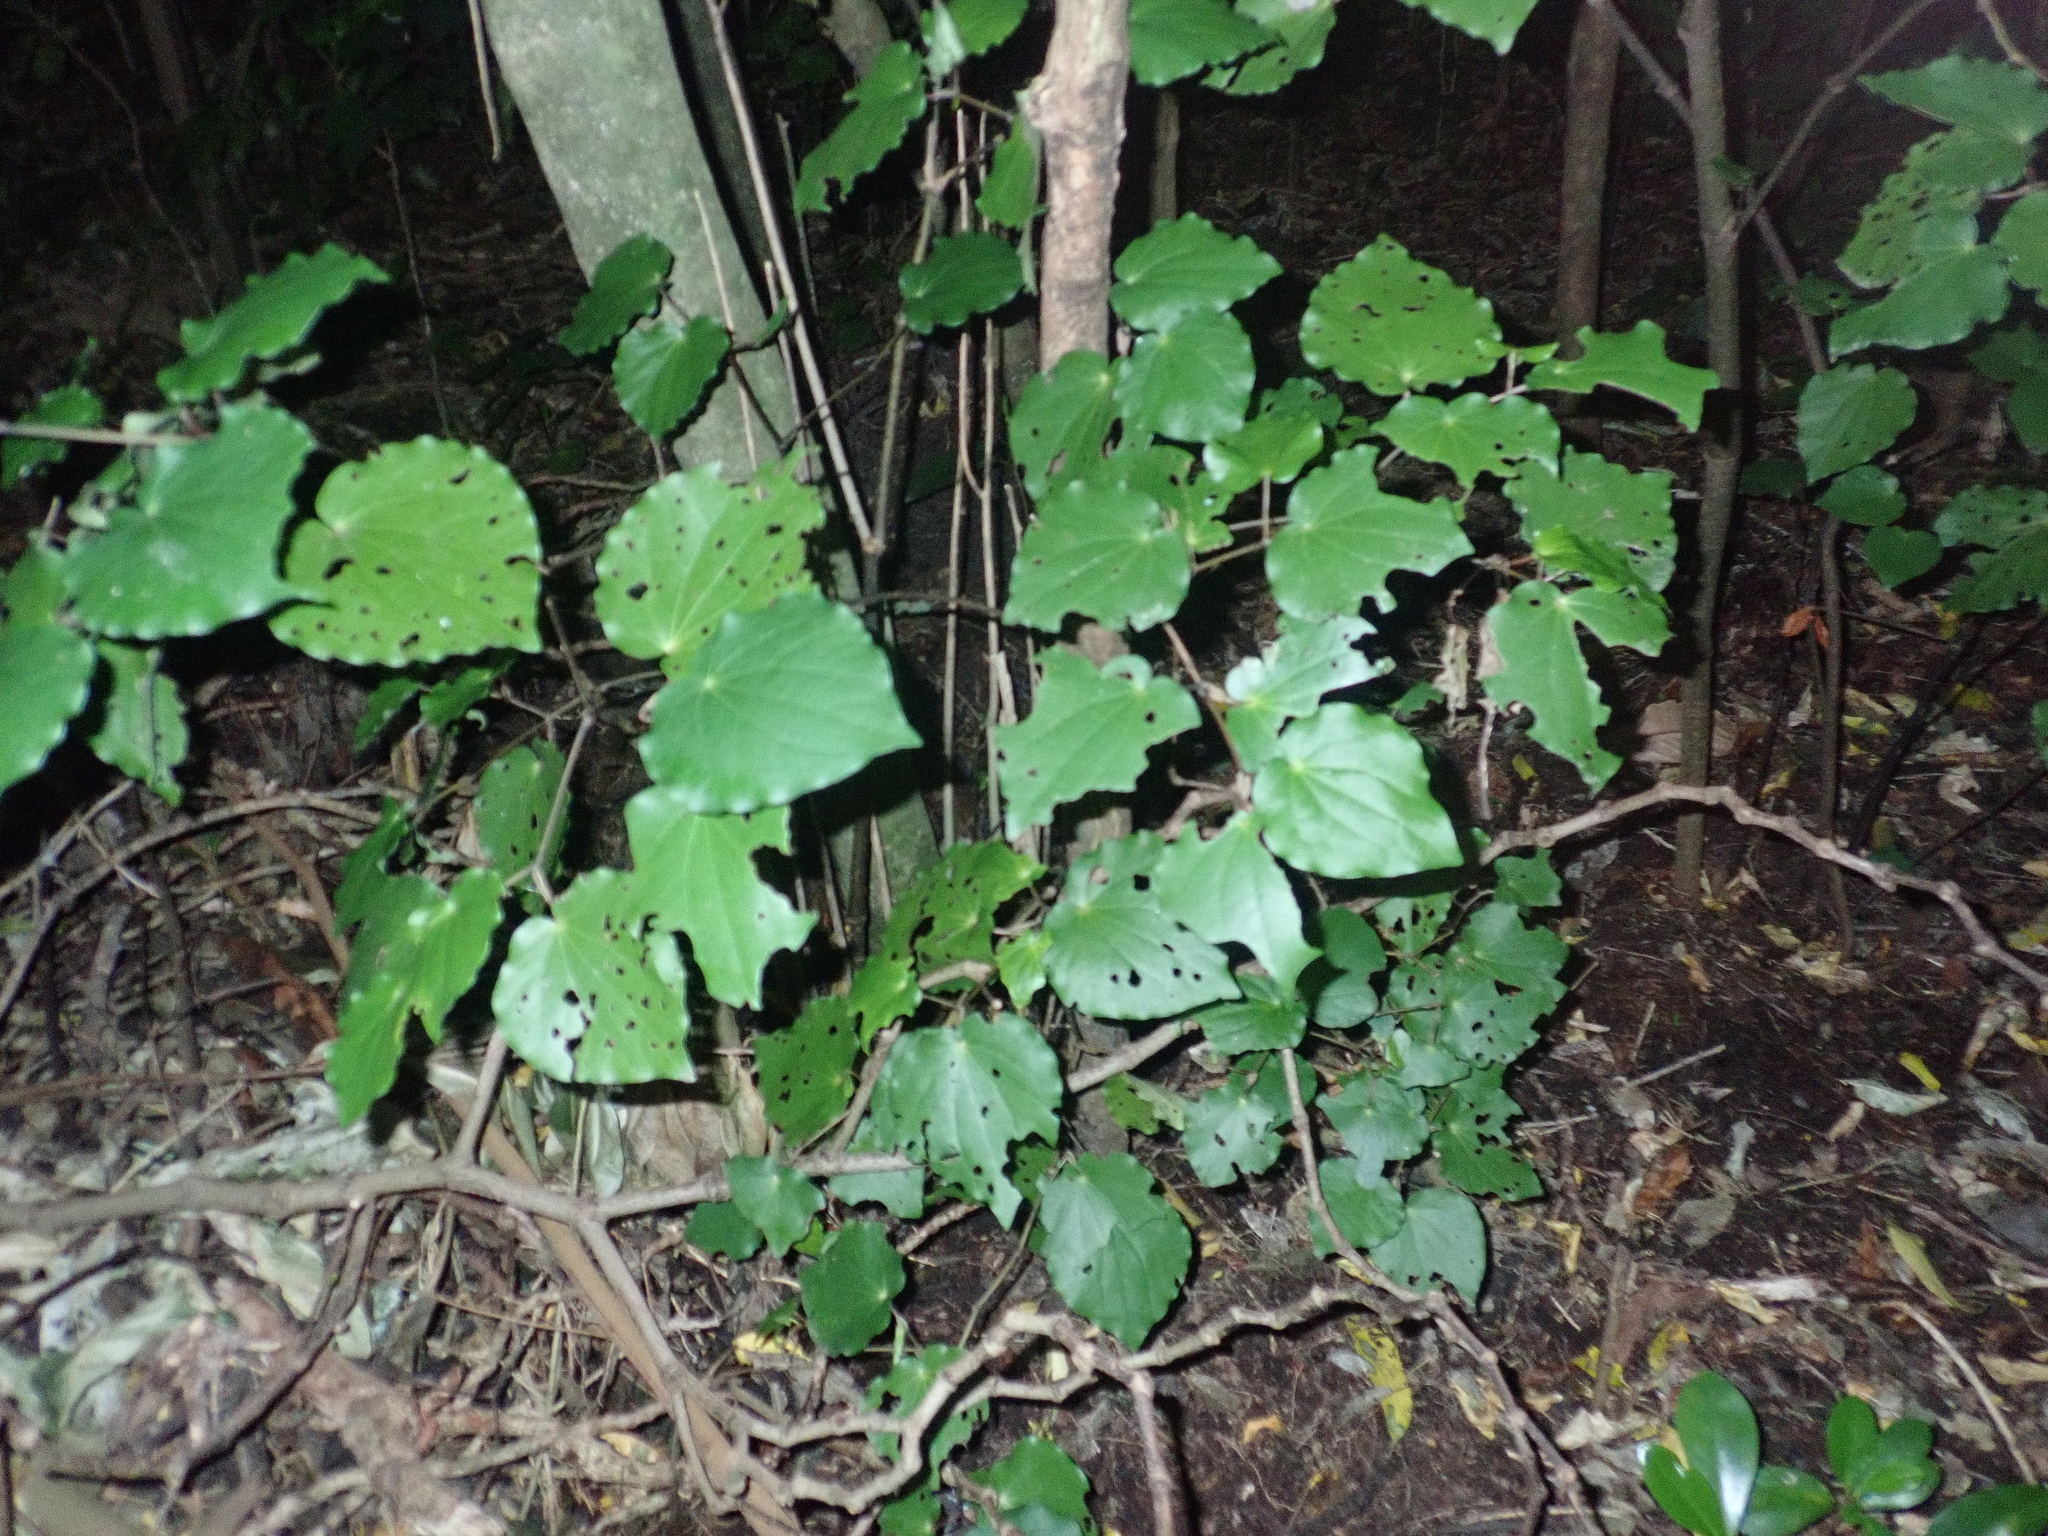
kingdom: Plantae
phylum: Tracheophyta
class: Magnoliopsida
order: Piperales
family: Piperaceae
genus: Macropiper
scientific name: Macropiper excelsum
